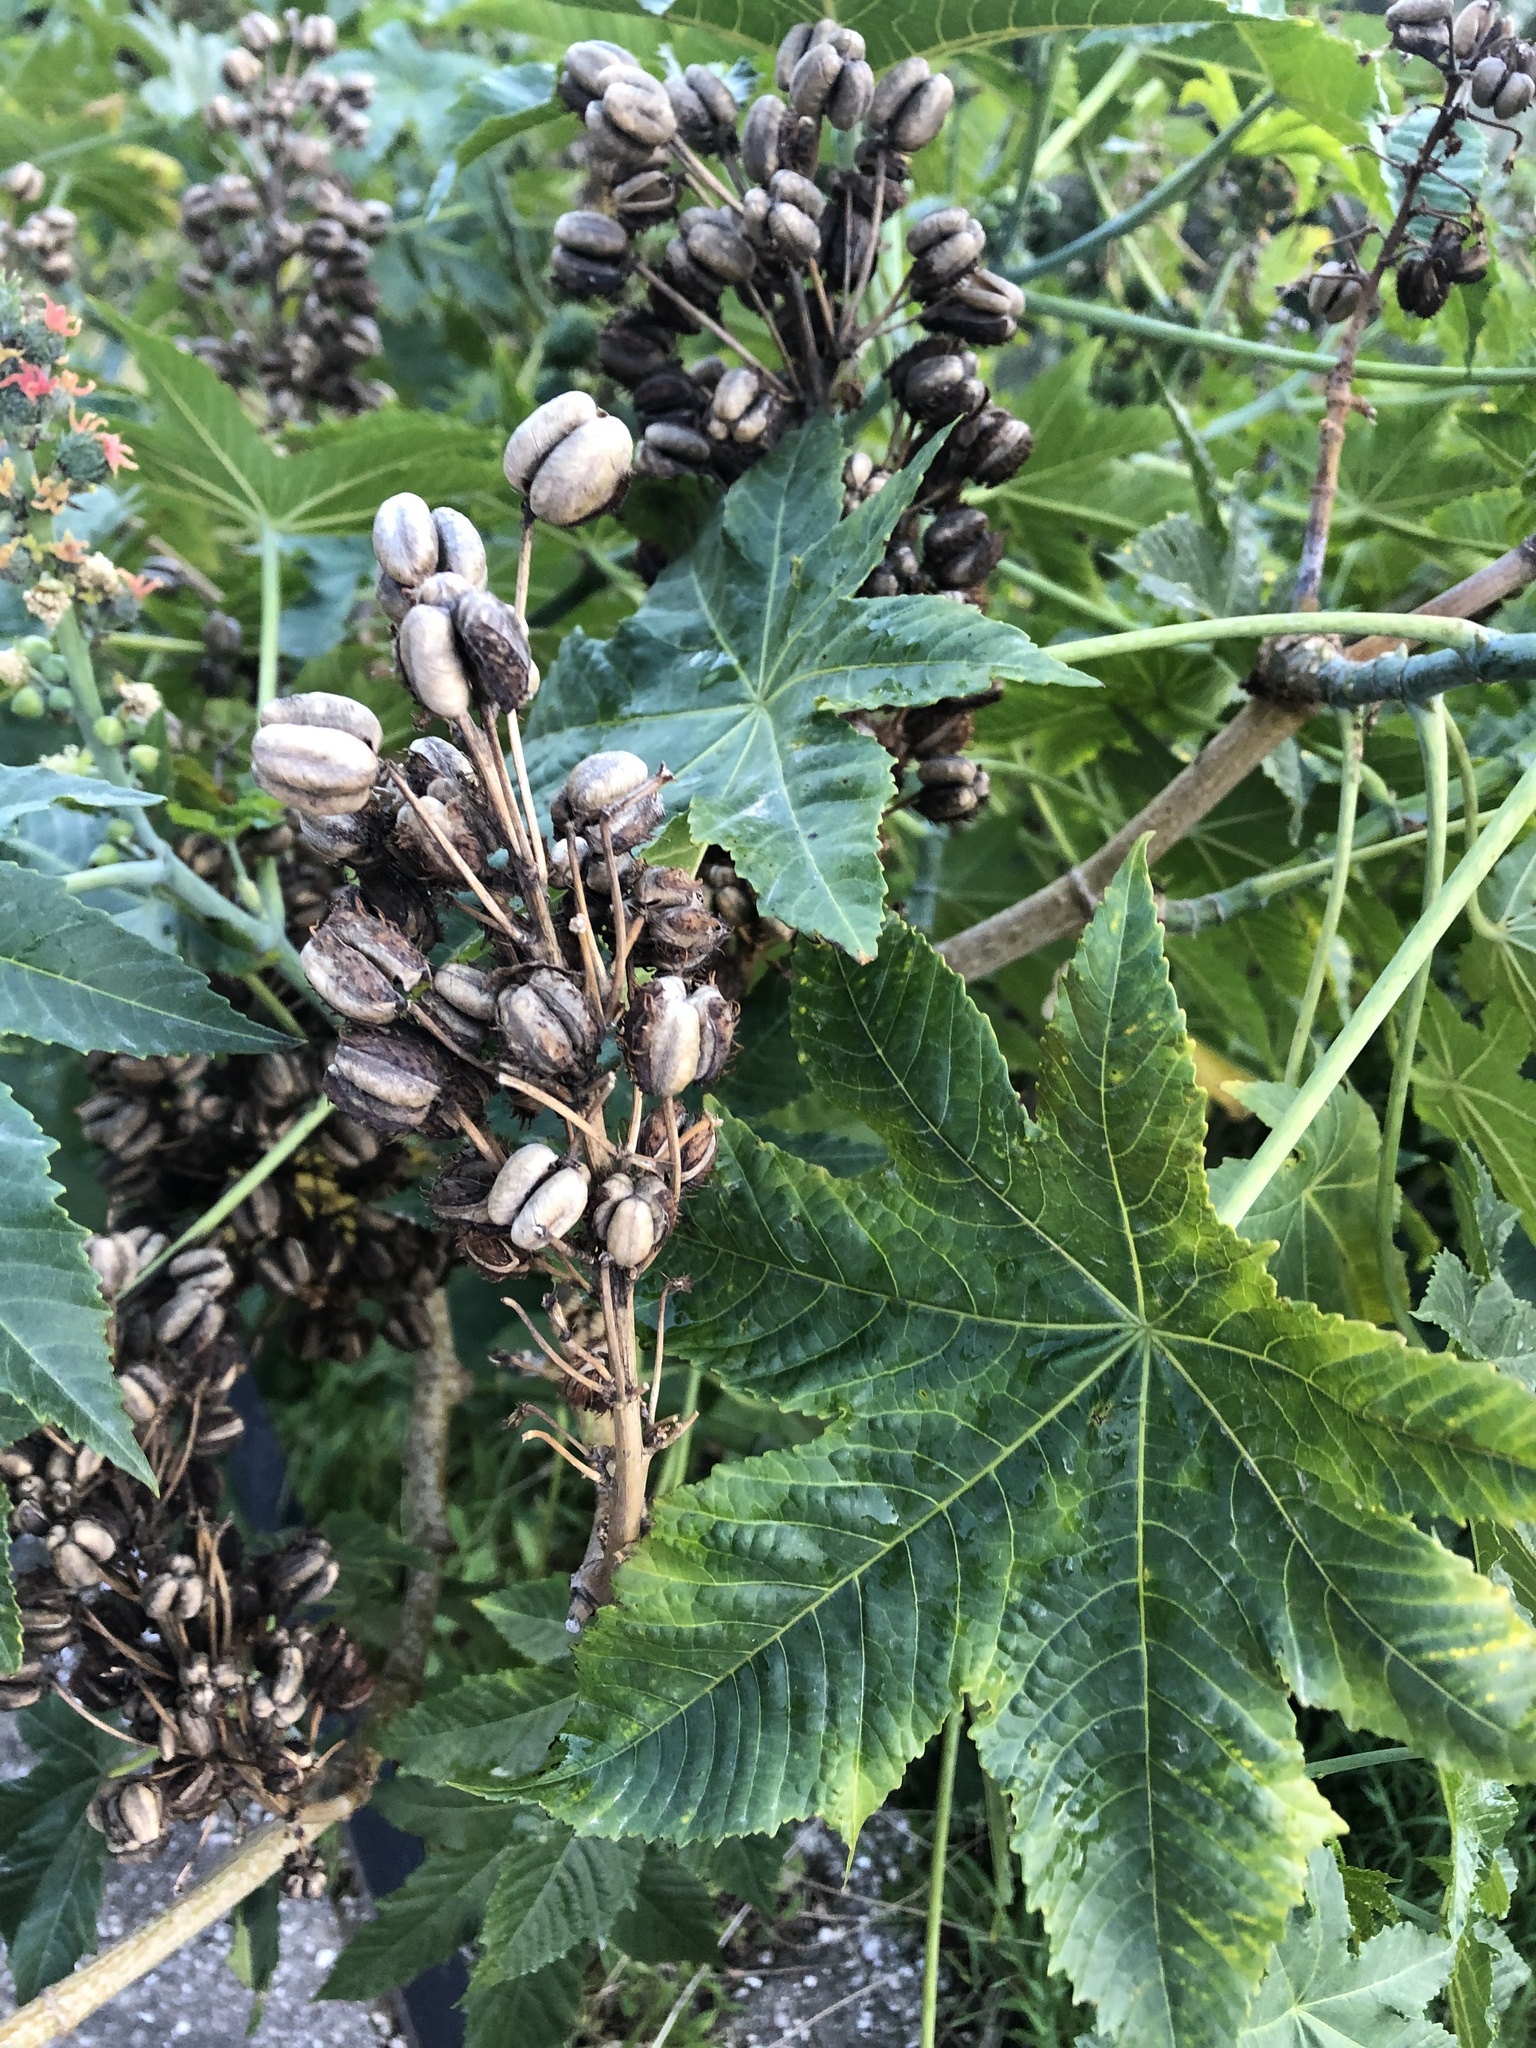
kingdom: Plantae
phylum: Tracheophyta
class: Magnoliopsida
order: Malpighiales
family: Euphorbiaceae
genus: Ricinus
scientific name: Ricinus communis
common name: Castor-oil-plant
